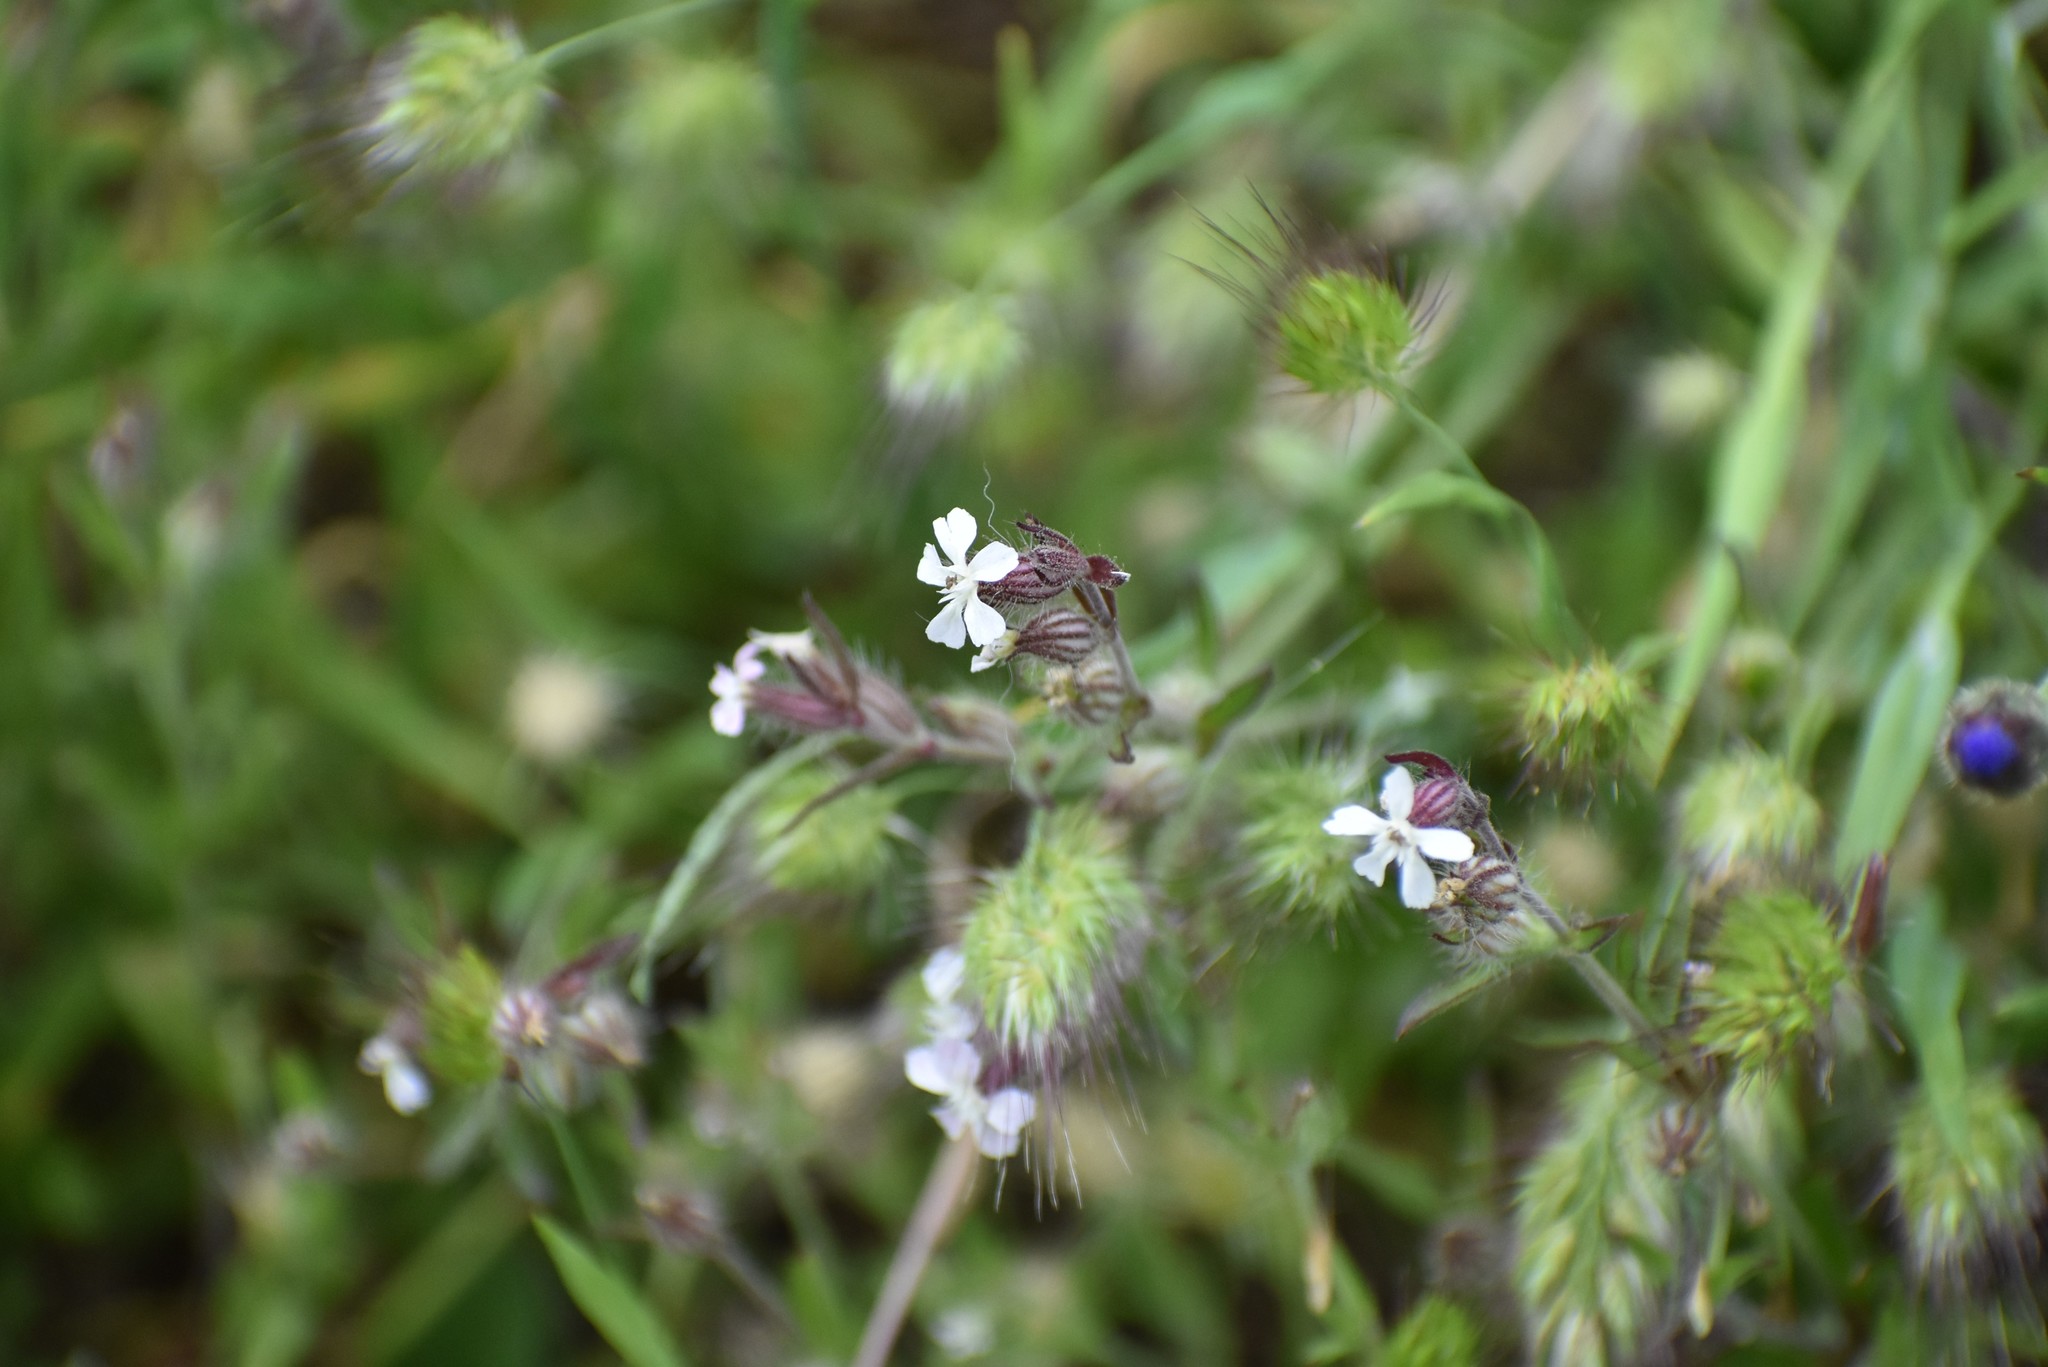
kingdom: Plantae
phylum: Tracheophyta
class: Magnoliopsida
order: Caryophyllales
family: Caryophyllaceae
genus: Silene
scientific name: Silene gallica
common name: Small-flowered catchfly
